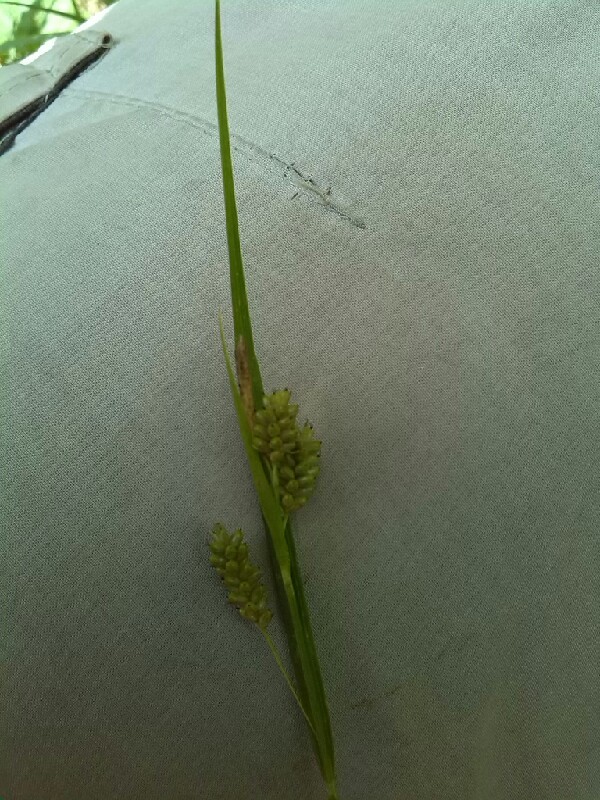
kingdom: Plantae
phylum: Tracheophyta
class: Liliopsida
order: Poales
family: Cyperaceae
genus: Carex
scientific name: Carex pallescens
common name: Pale sedge
